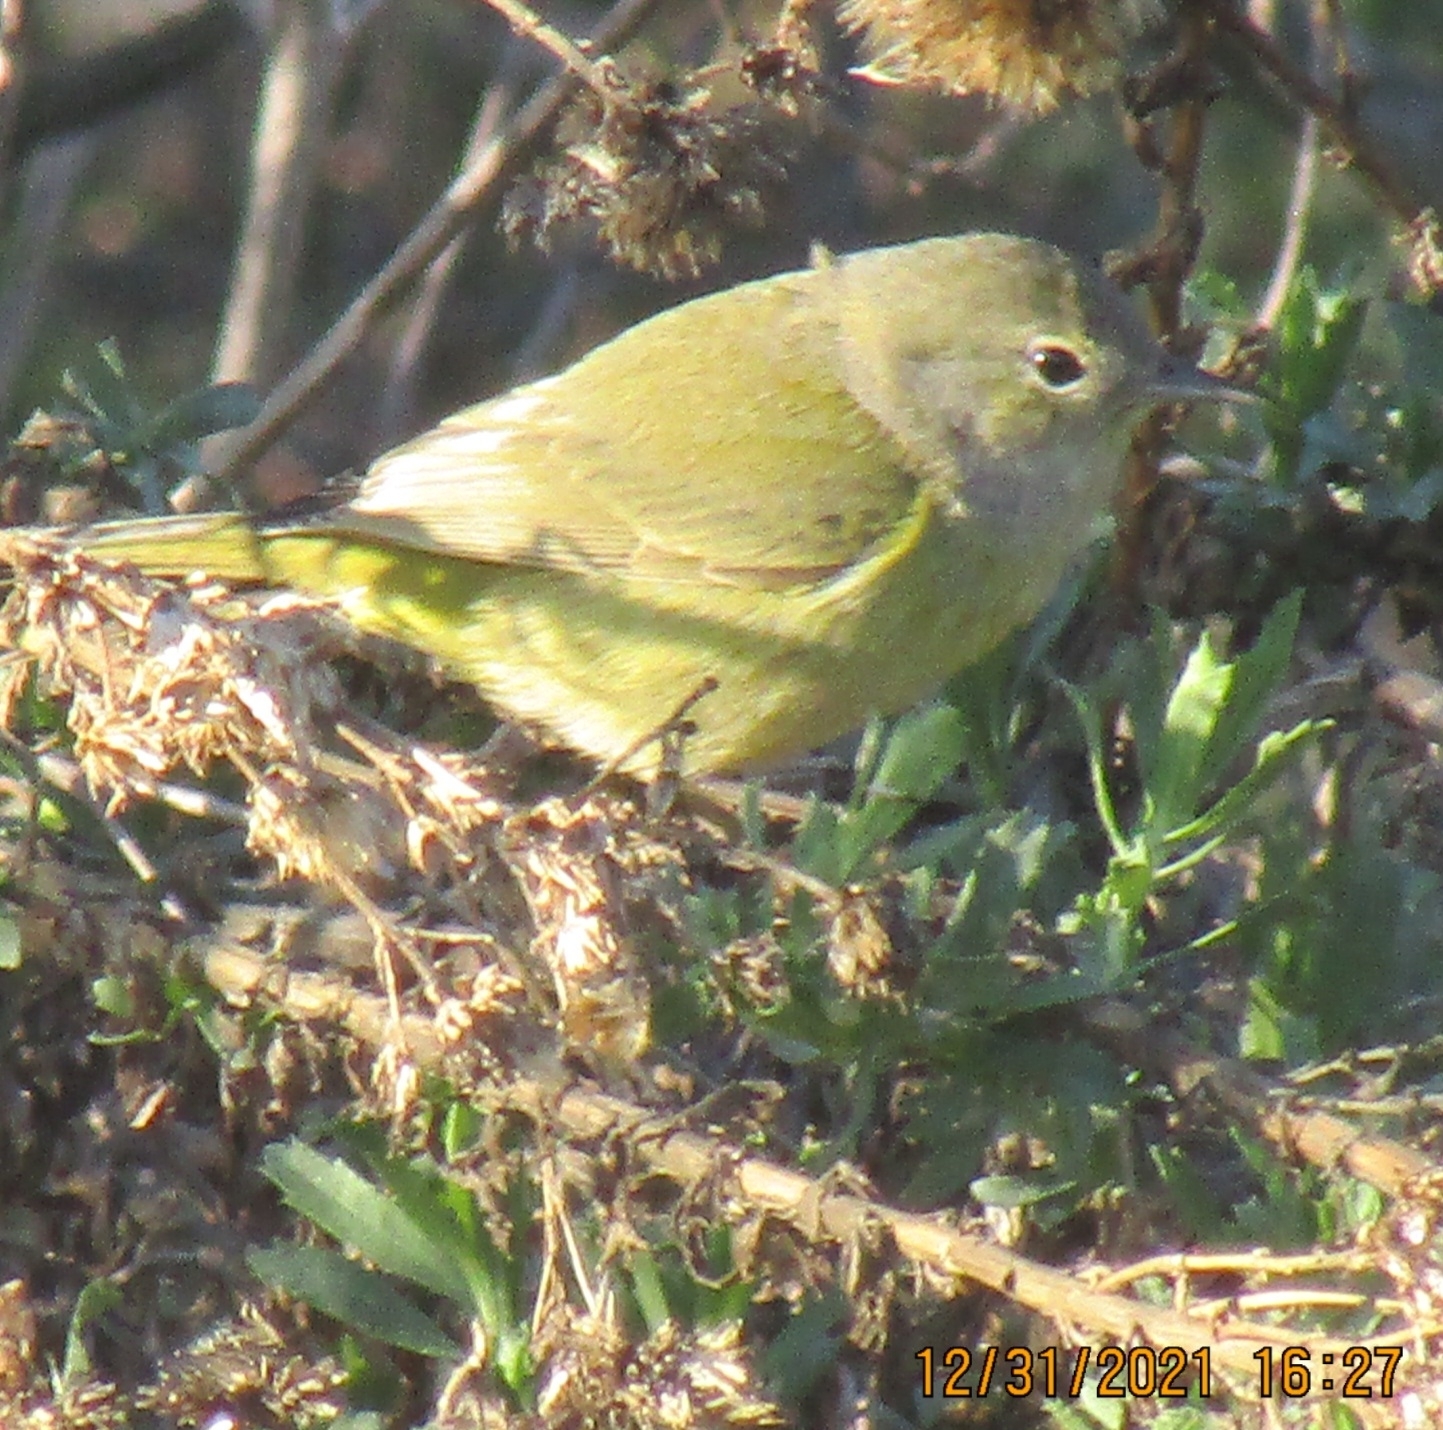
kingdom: Animalia
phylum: Chordata
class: Aves
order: Passeriformes
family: Parulidae
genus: Leiothlypis
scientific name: Leiothlypis celata
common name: Orange-crowned warbler
